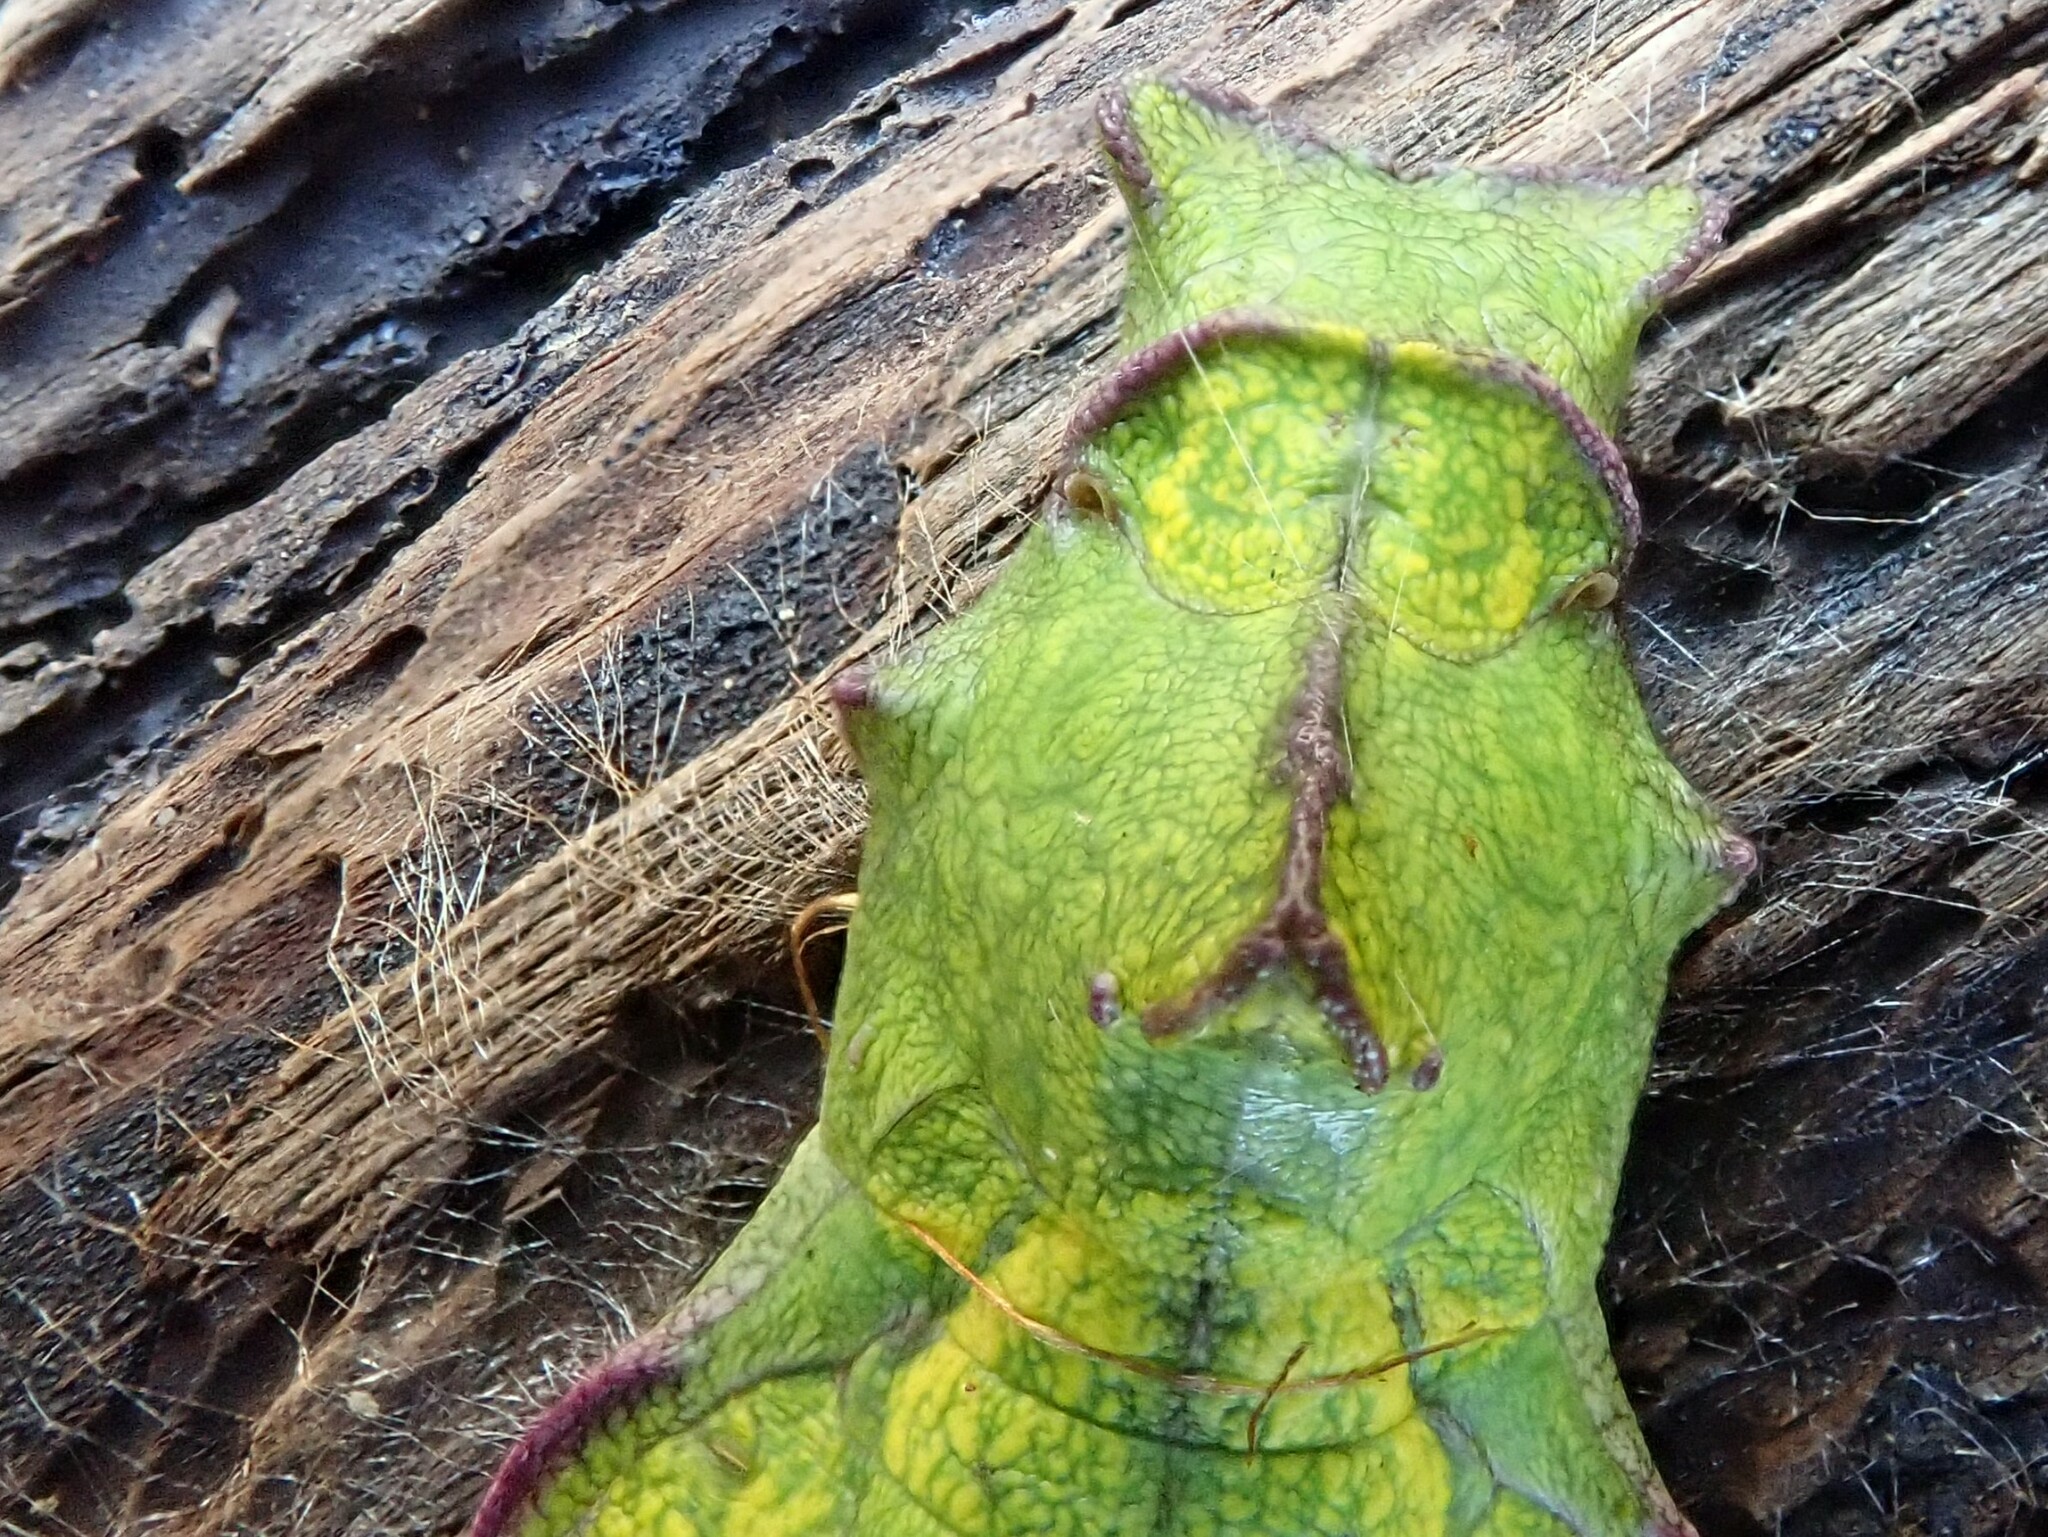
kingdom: Animalia
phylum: Arthropoda
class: Insecta
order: Lepidoptera
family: Papilionidae
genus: Battus
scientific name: Battus philenor
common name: Pipevine swallowtail
